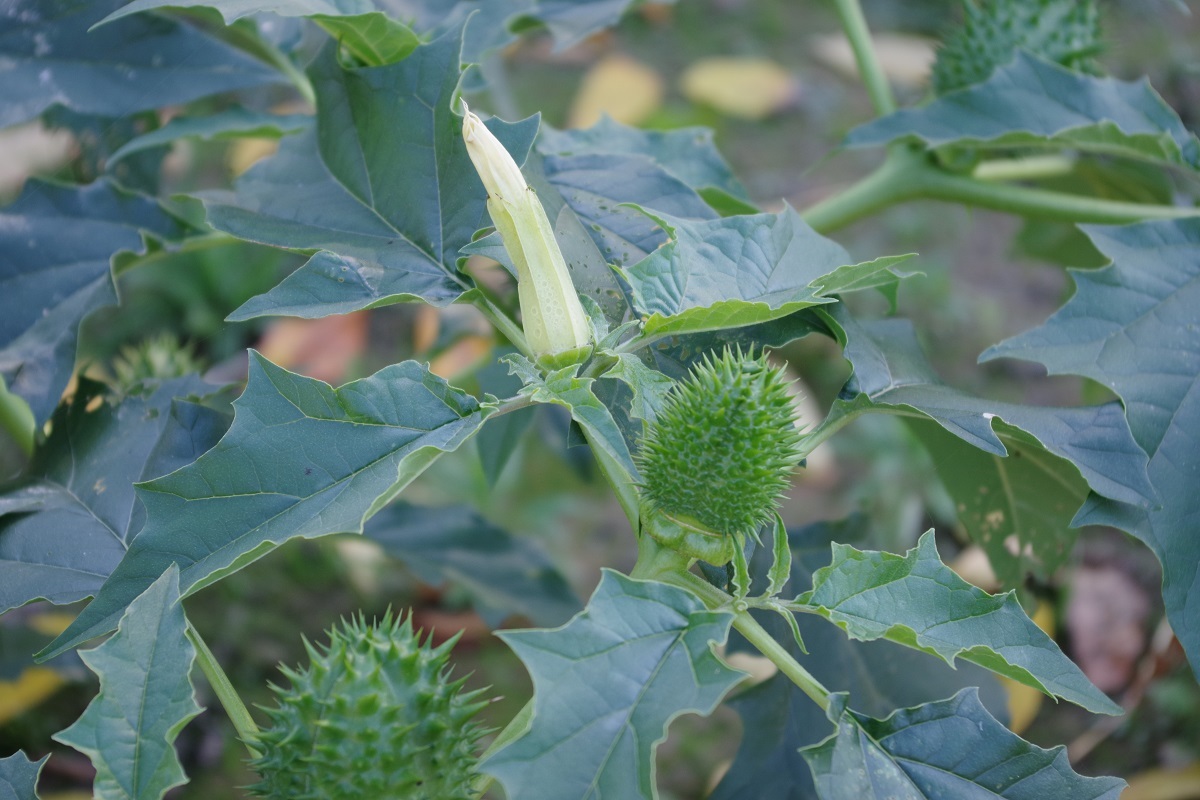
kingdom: Plantae
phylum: Tracheophyta
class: Magnoliopsida
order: Solanales
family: Solanaceae
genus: Datura
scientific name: Datura stramonium
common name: Thorn-apple
